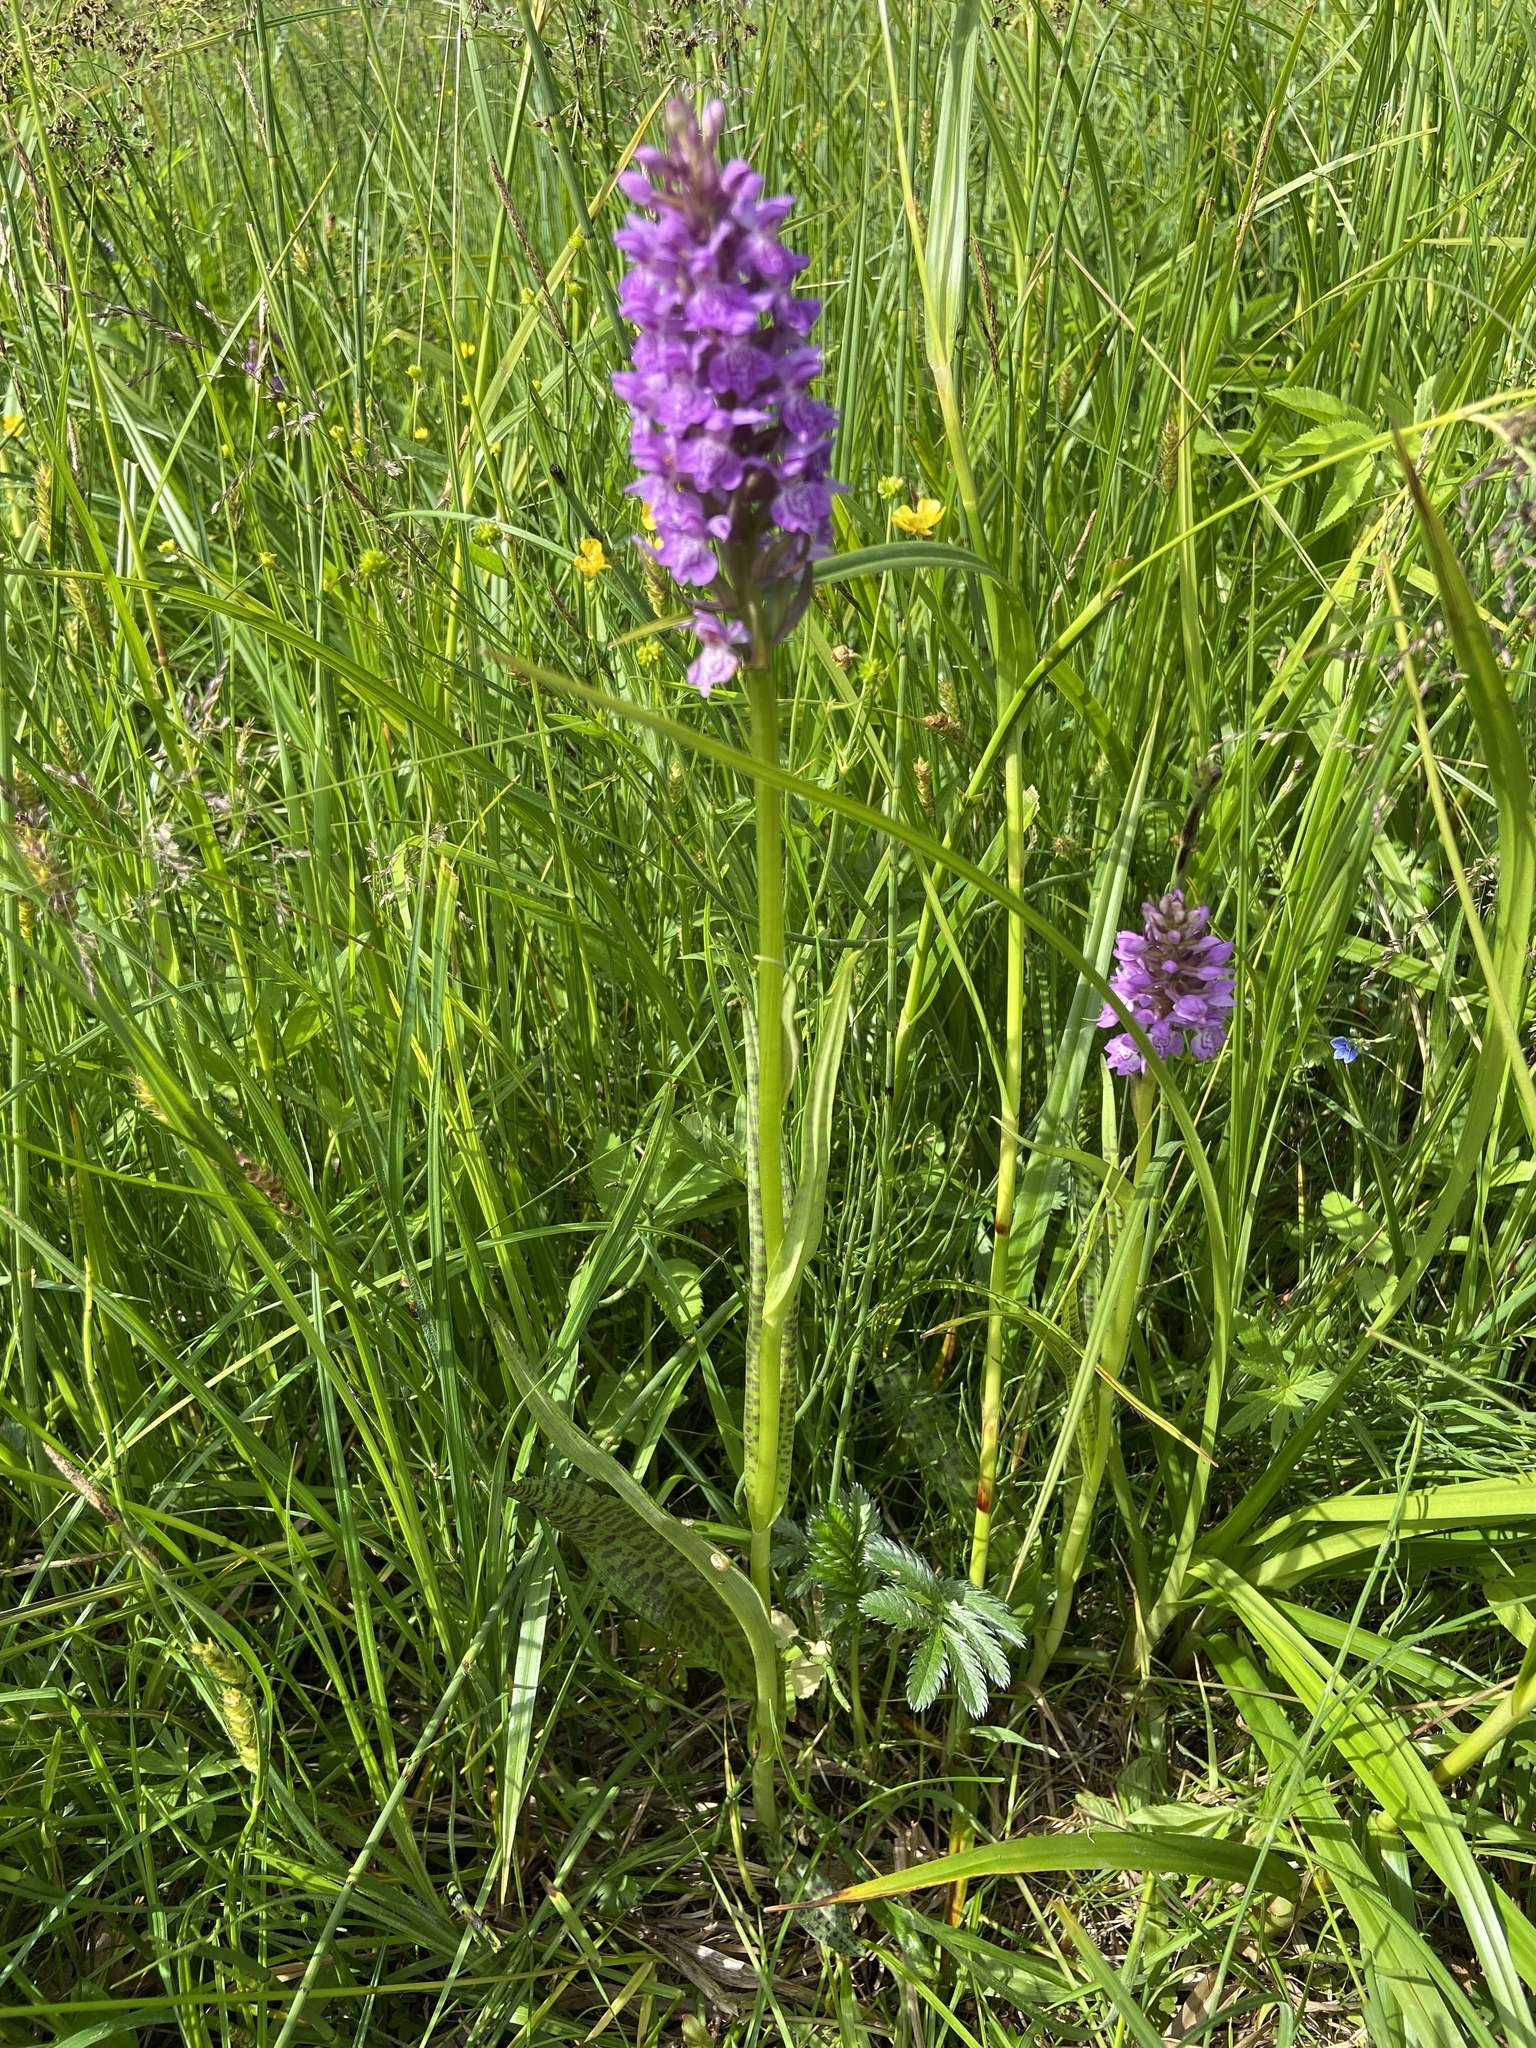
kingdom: Plantae
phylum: Tracheophyta
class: Liliopsida
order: Asparagales
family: Orchidaceae
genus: Dactylorhiza
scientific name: Dactylorhiza majalis
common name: Marsh orchid
